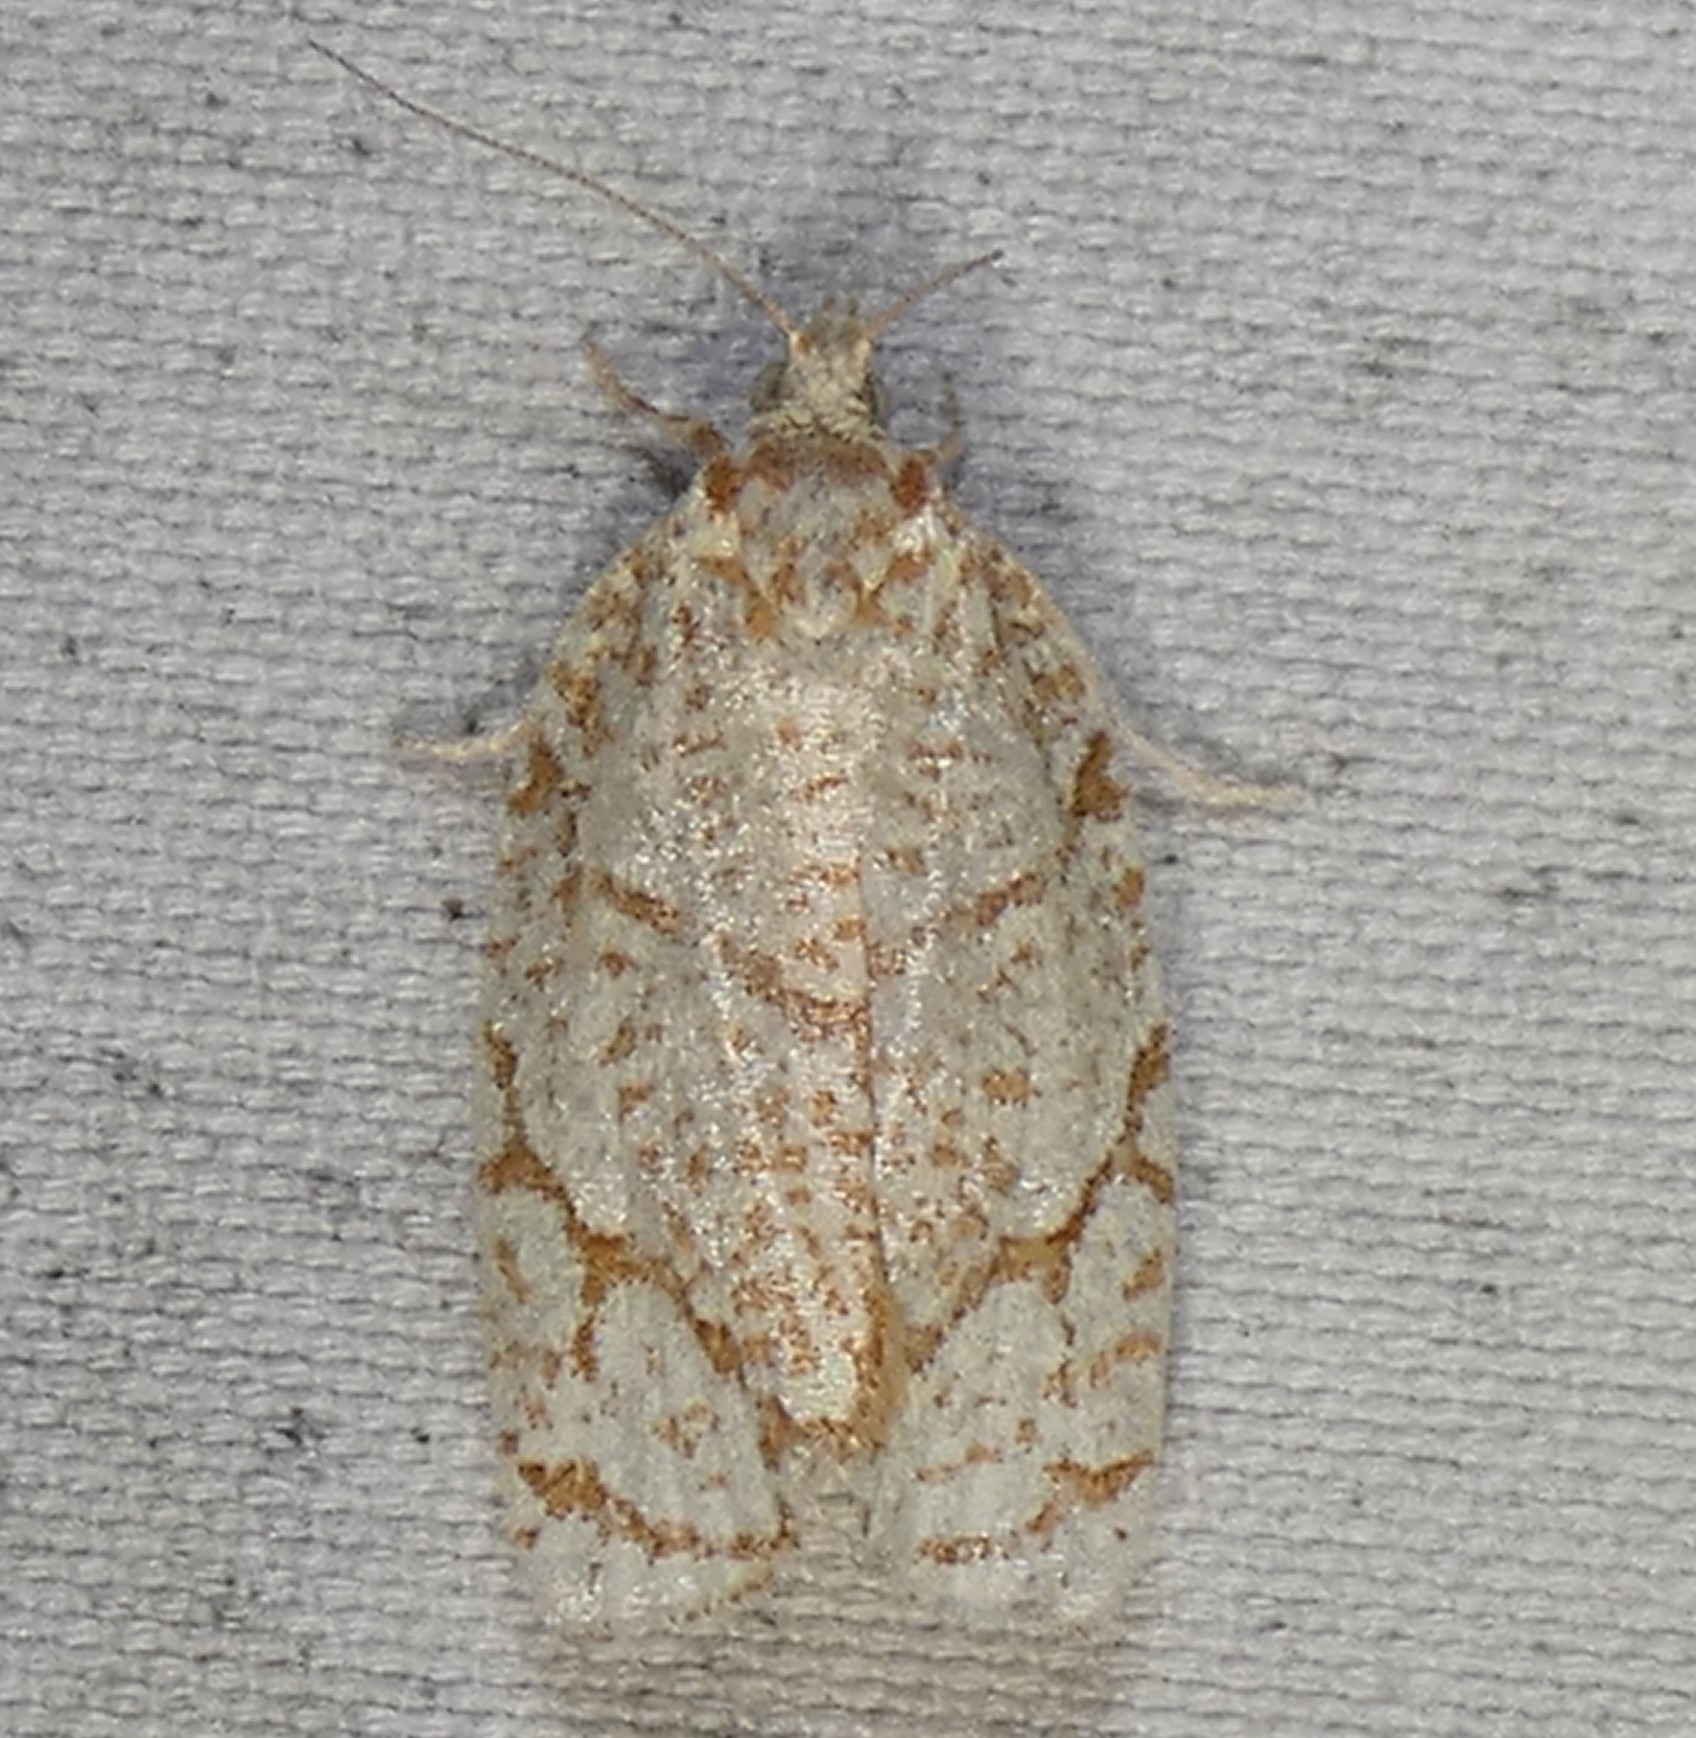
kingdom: Animalia
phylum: Arthropoda
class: Insecta
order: Lepidoptera
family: Tortricidae
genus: Argyrotaenia
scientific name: Argyrotaenia quercifoliana
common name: Yellow-winged oak leafroller moth
